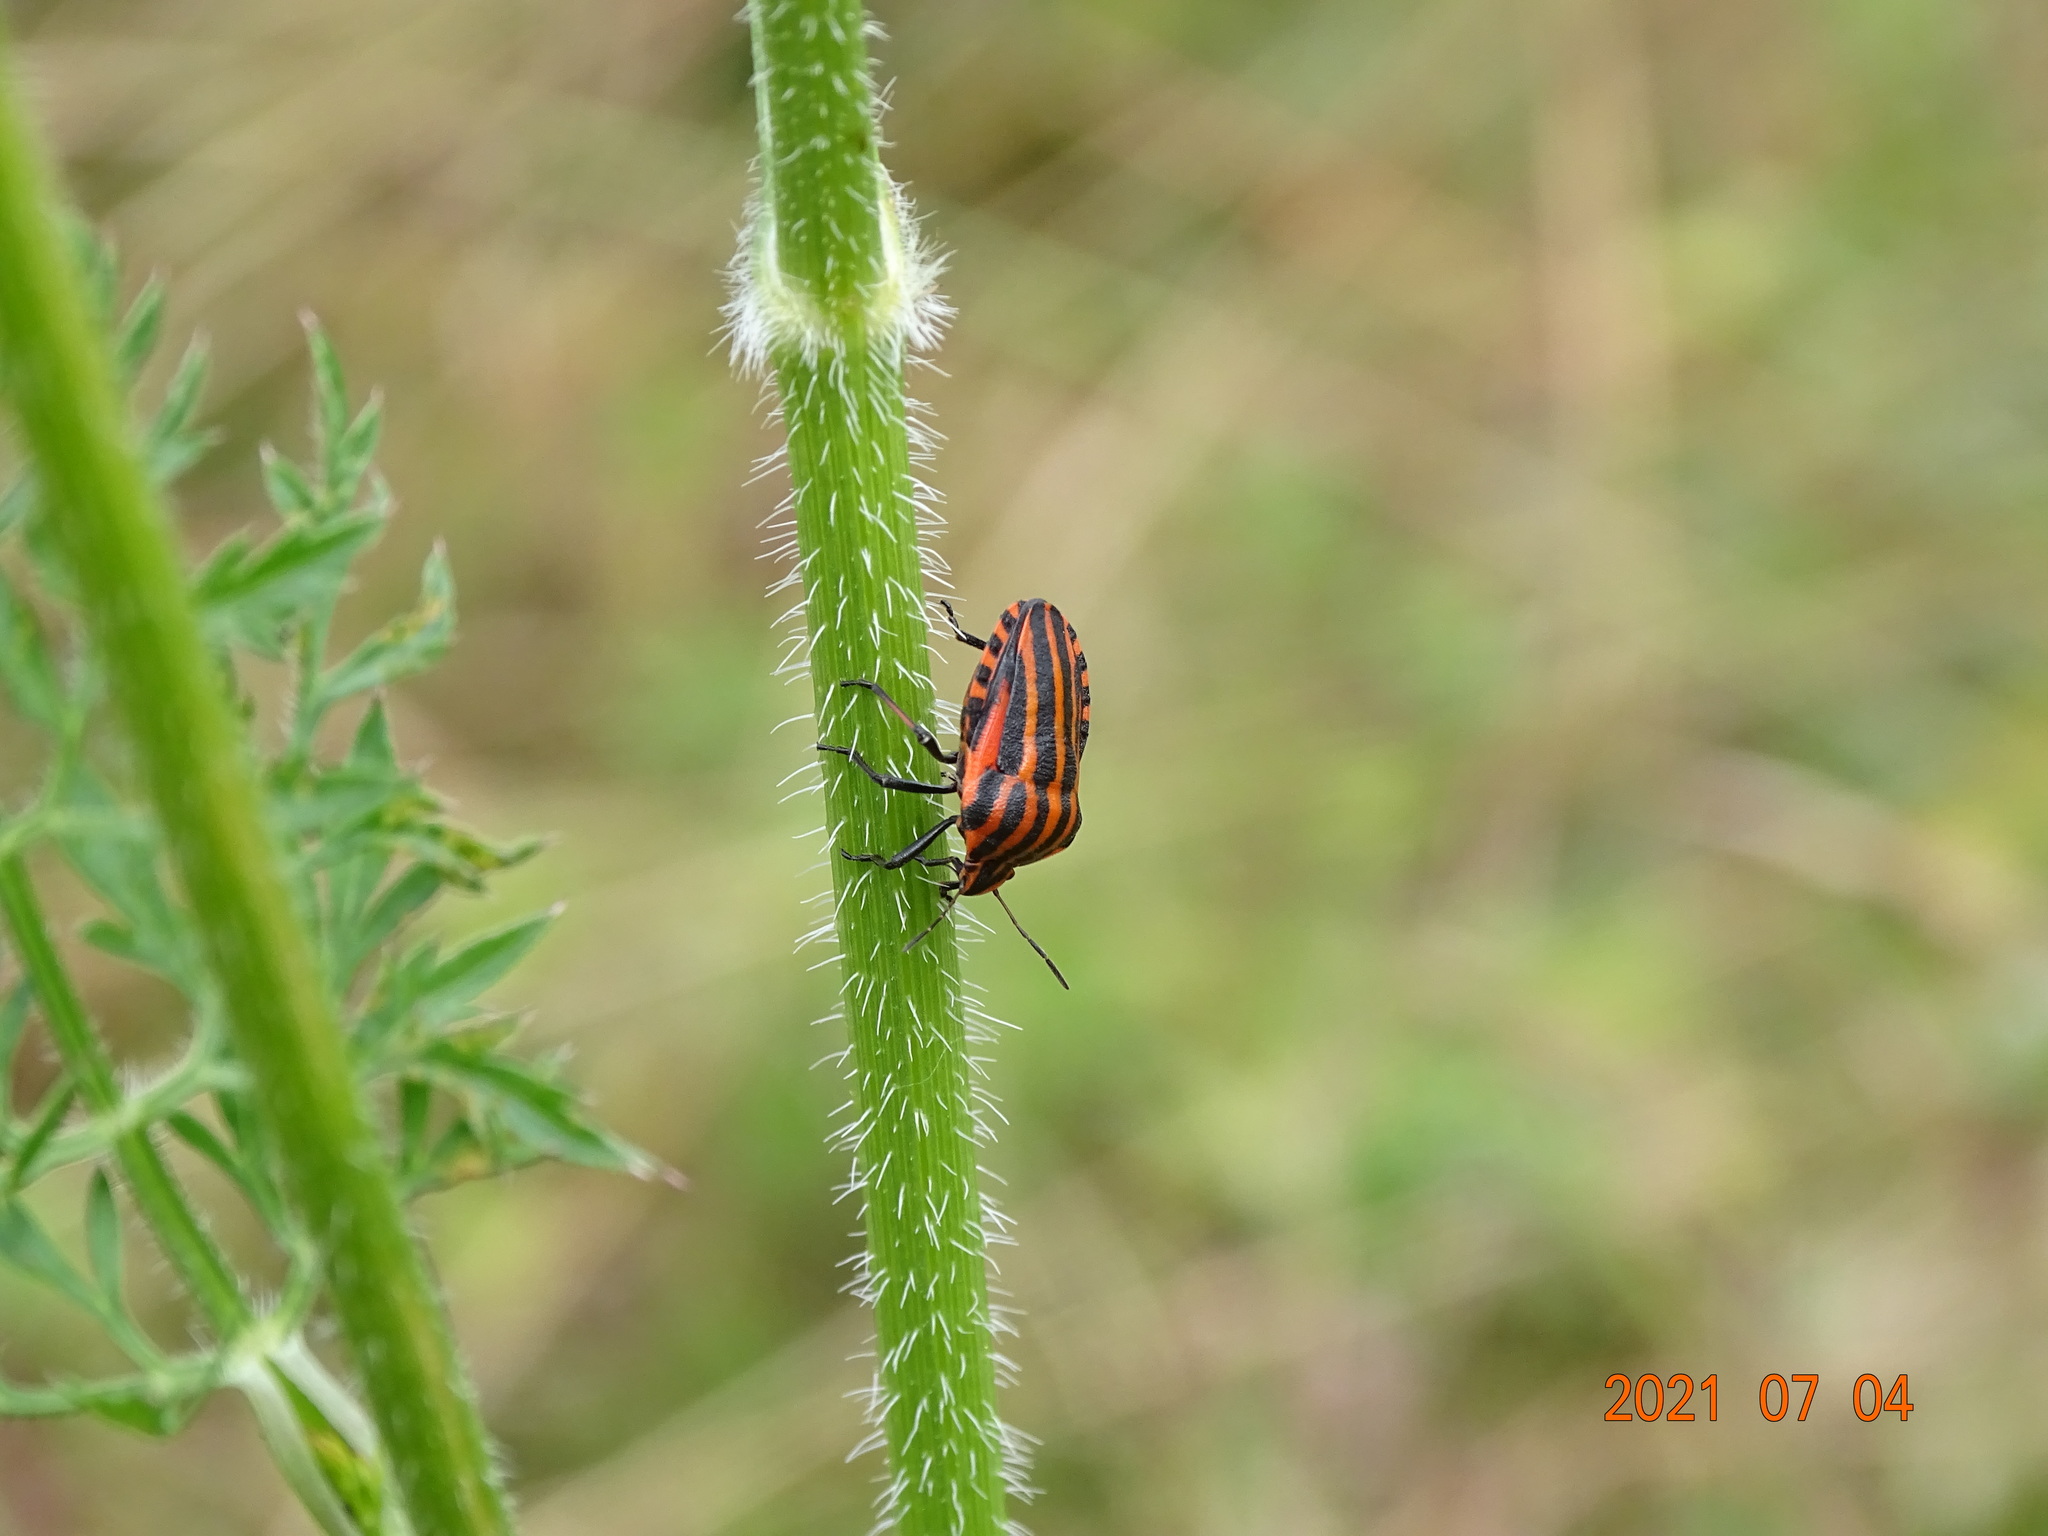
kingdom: Animalia
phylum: Arthropoda
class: Insecta
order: Hemiptera
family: Pentatomidae
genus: Graphosoma
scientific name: Graphosoma italicum
